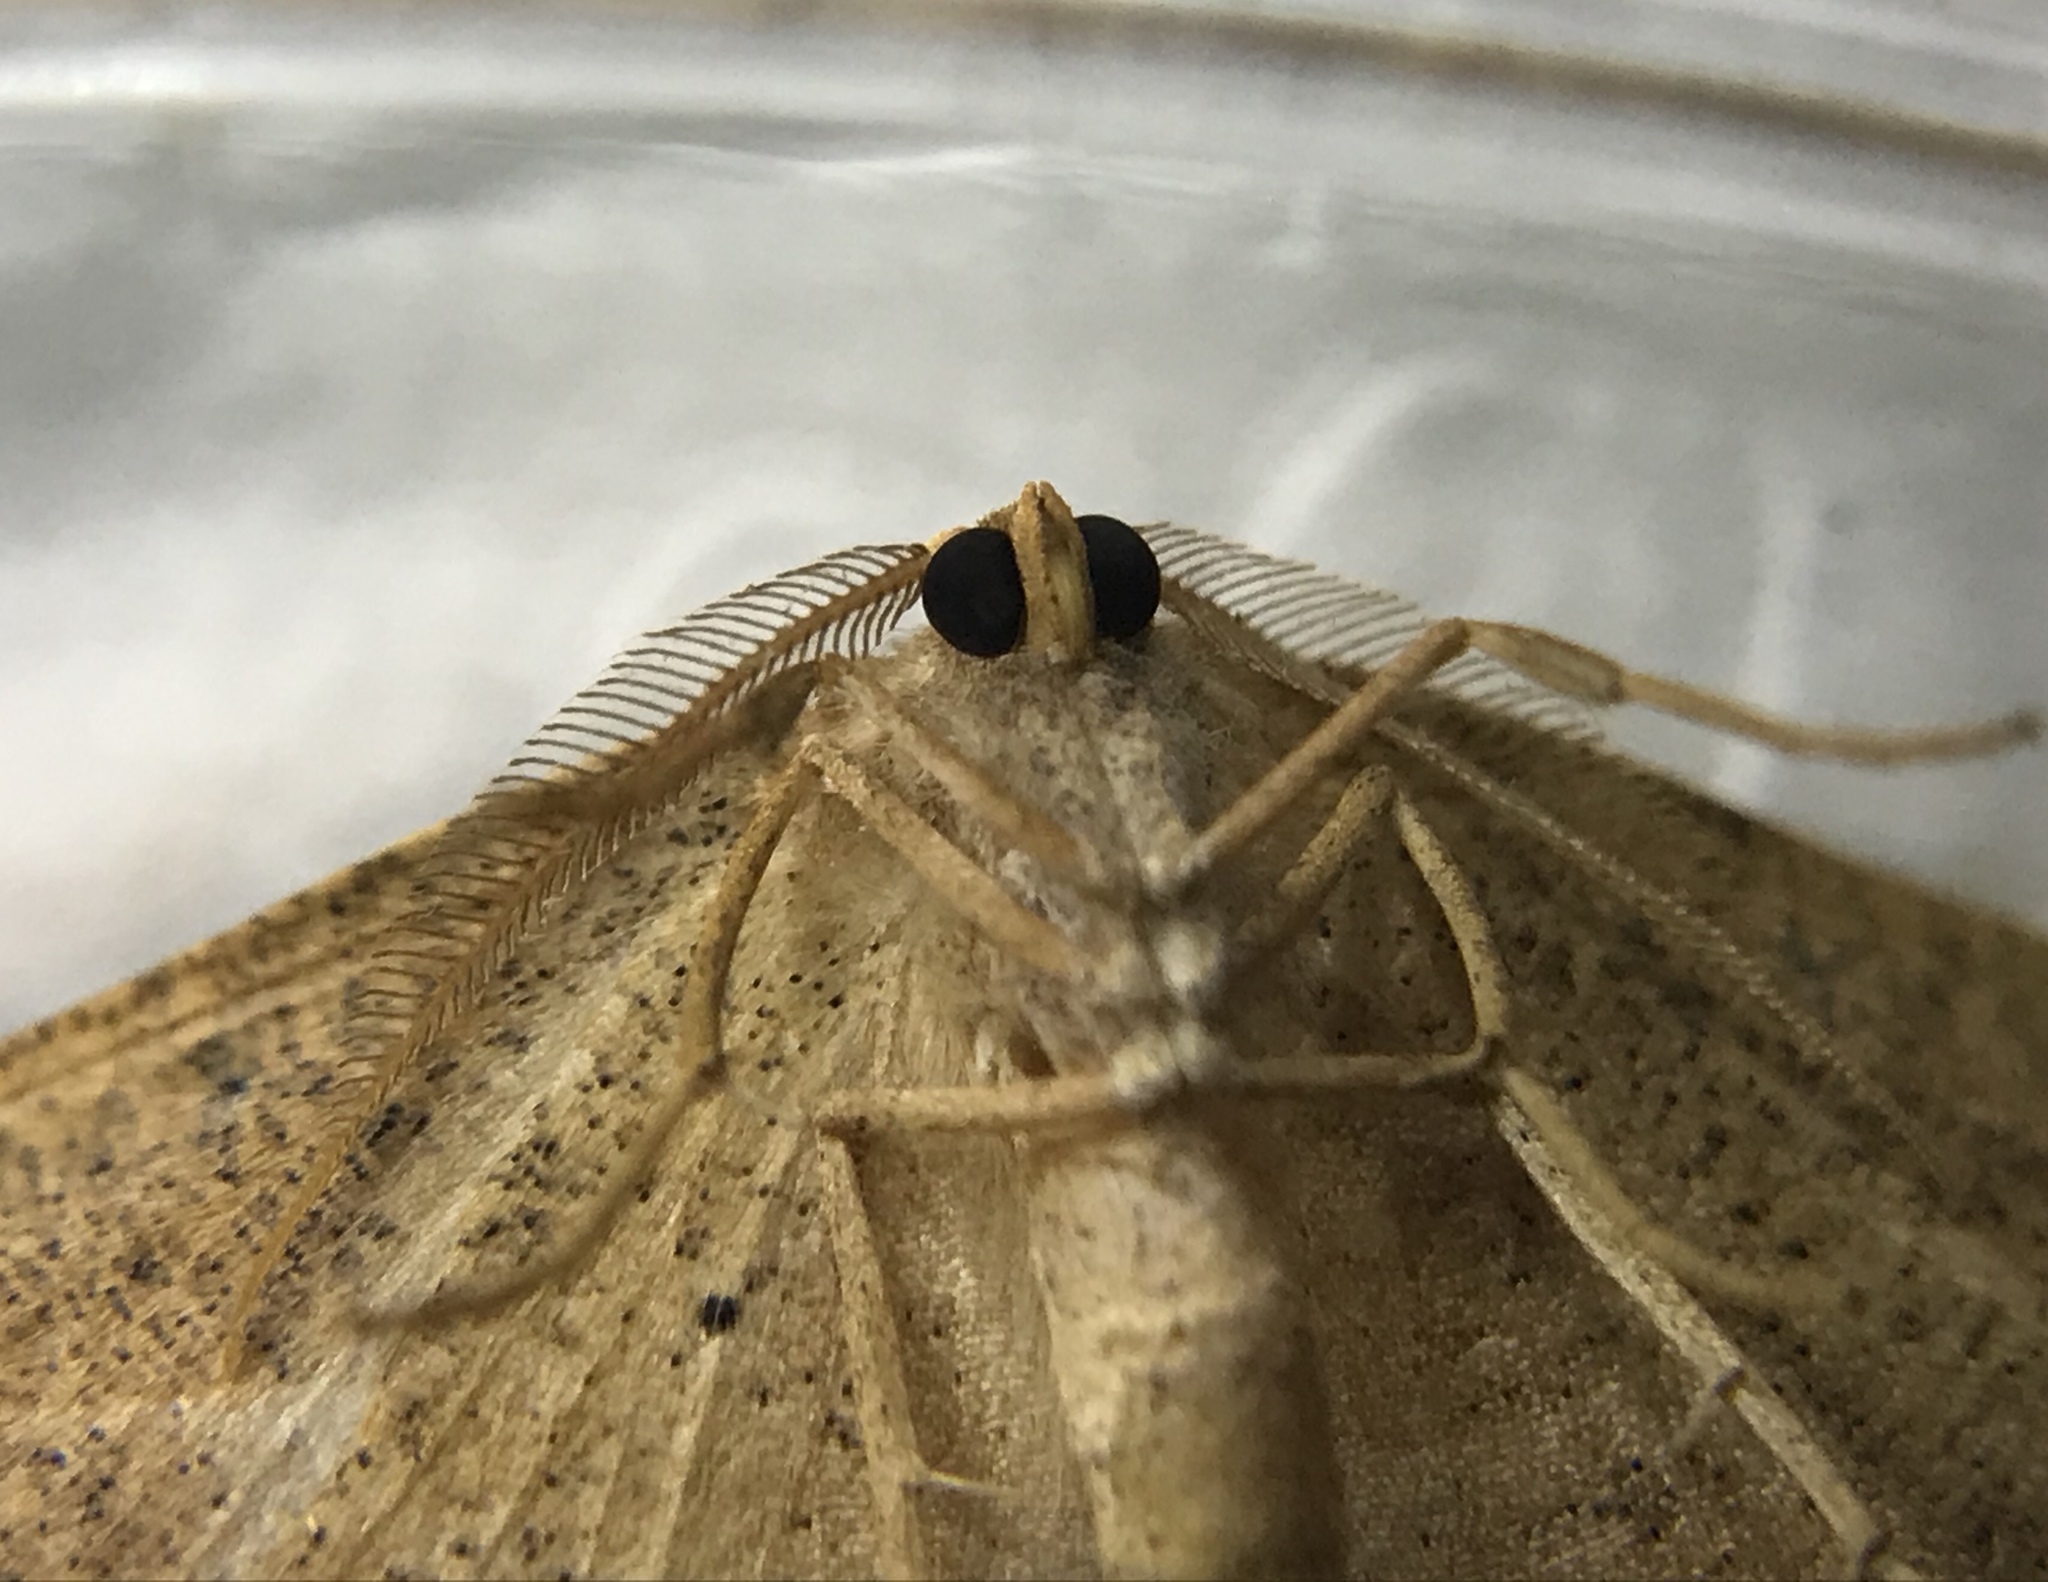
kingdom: Animalia
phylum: Arthropoda
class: Insecta
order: Lepidoptera
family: Geometridae
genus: Patalene
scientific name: Patalene olyzonaria
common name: Juniper geometer moth
